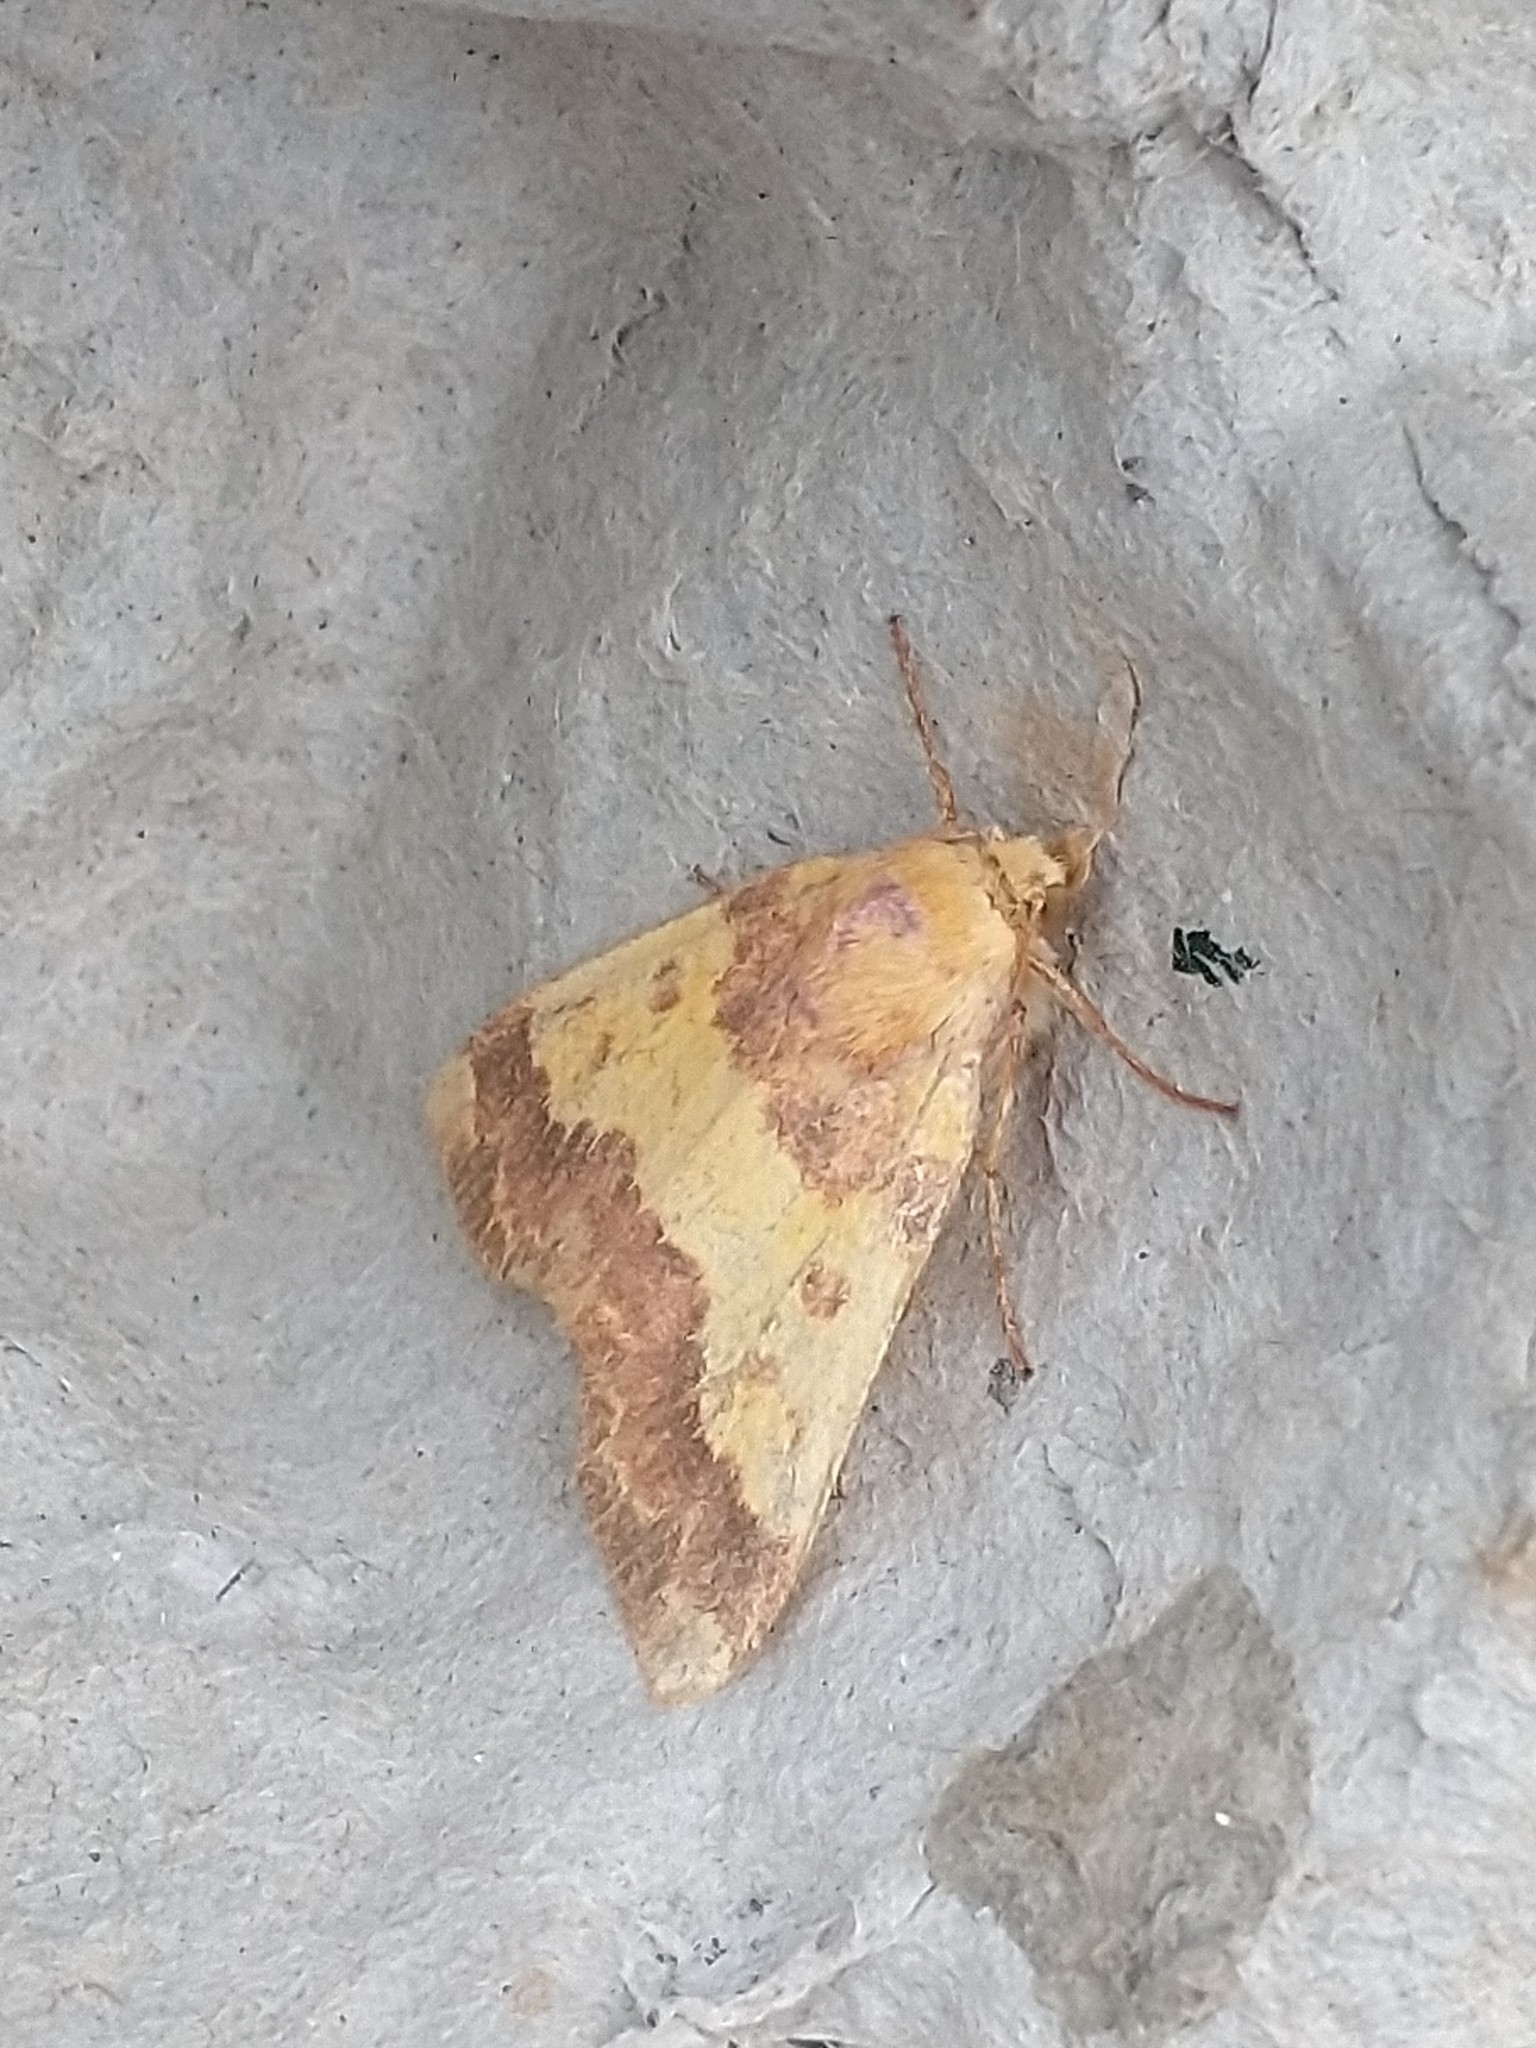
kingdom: Animalia
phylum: Arthropoda
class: Insecta
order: Lepidoptera
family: Noctuidae
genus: Tiliacea
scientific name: Tiliacea aurago
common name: Barred sallow
